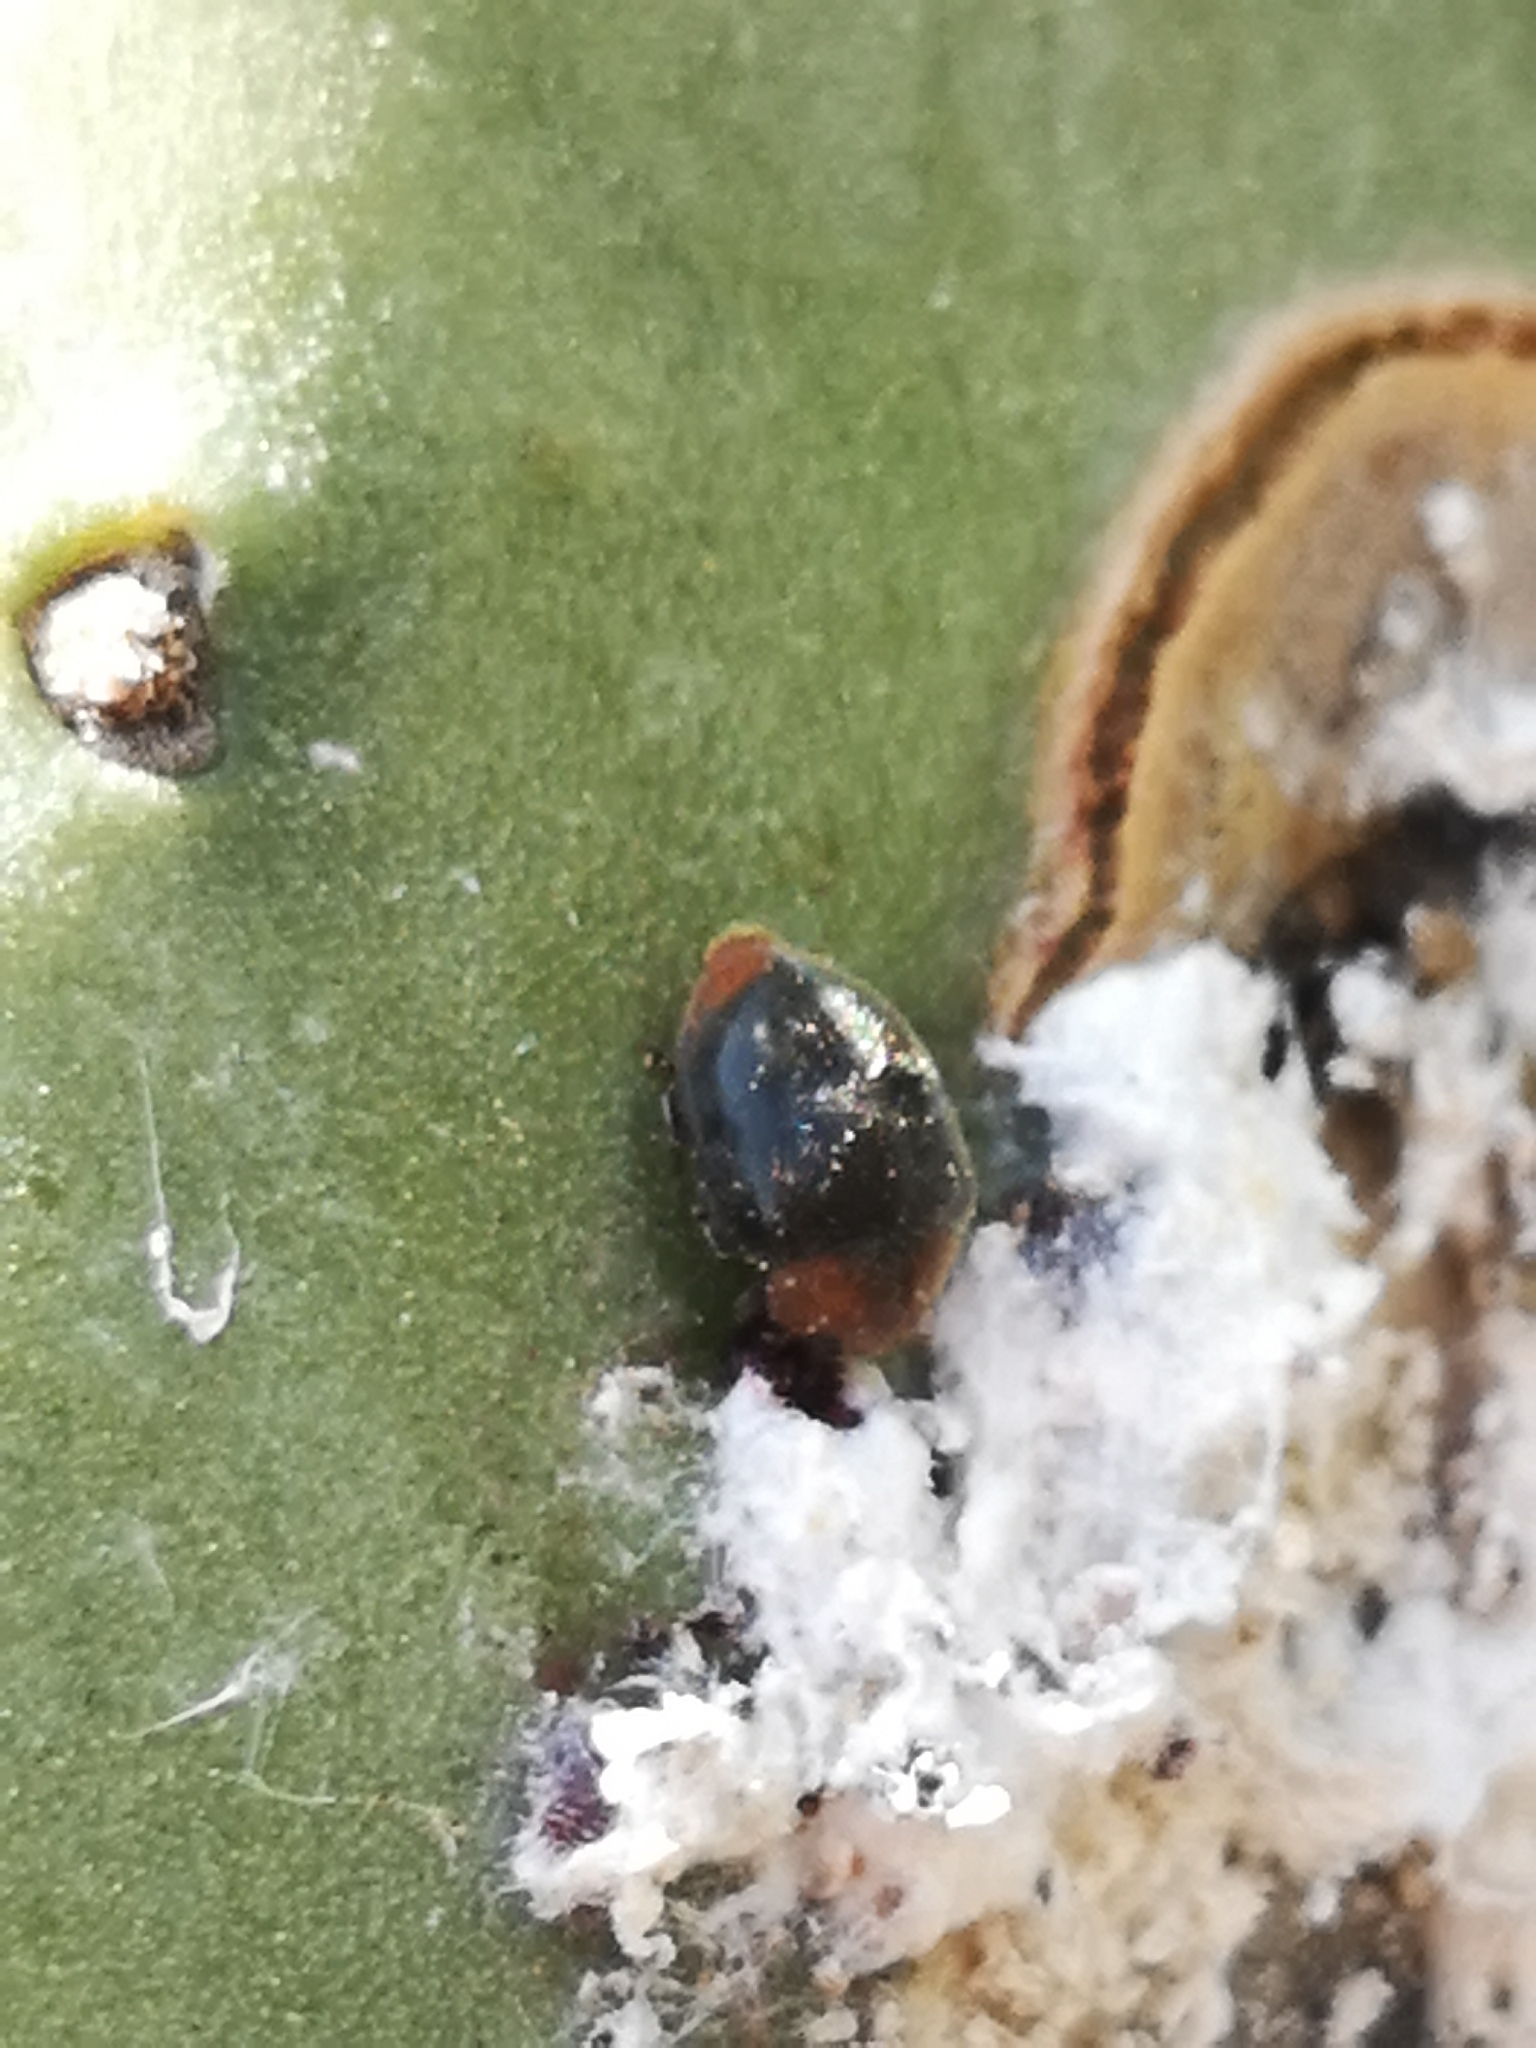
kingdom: Animalia
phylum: Arthropoda
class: Insecta
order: Coleoptera
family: Coccinellidae
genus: Cryptolaemus
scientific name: Cryptolaemus montrouzieri
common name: Mealybug destroyer
